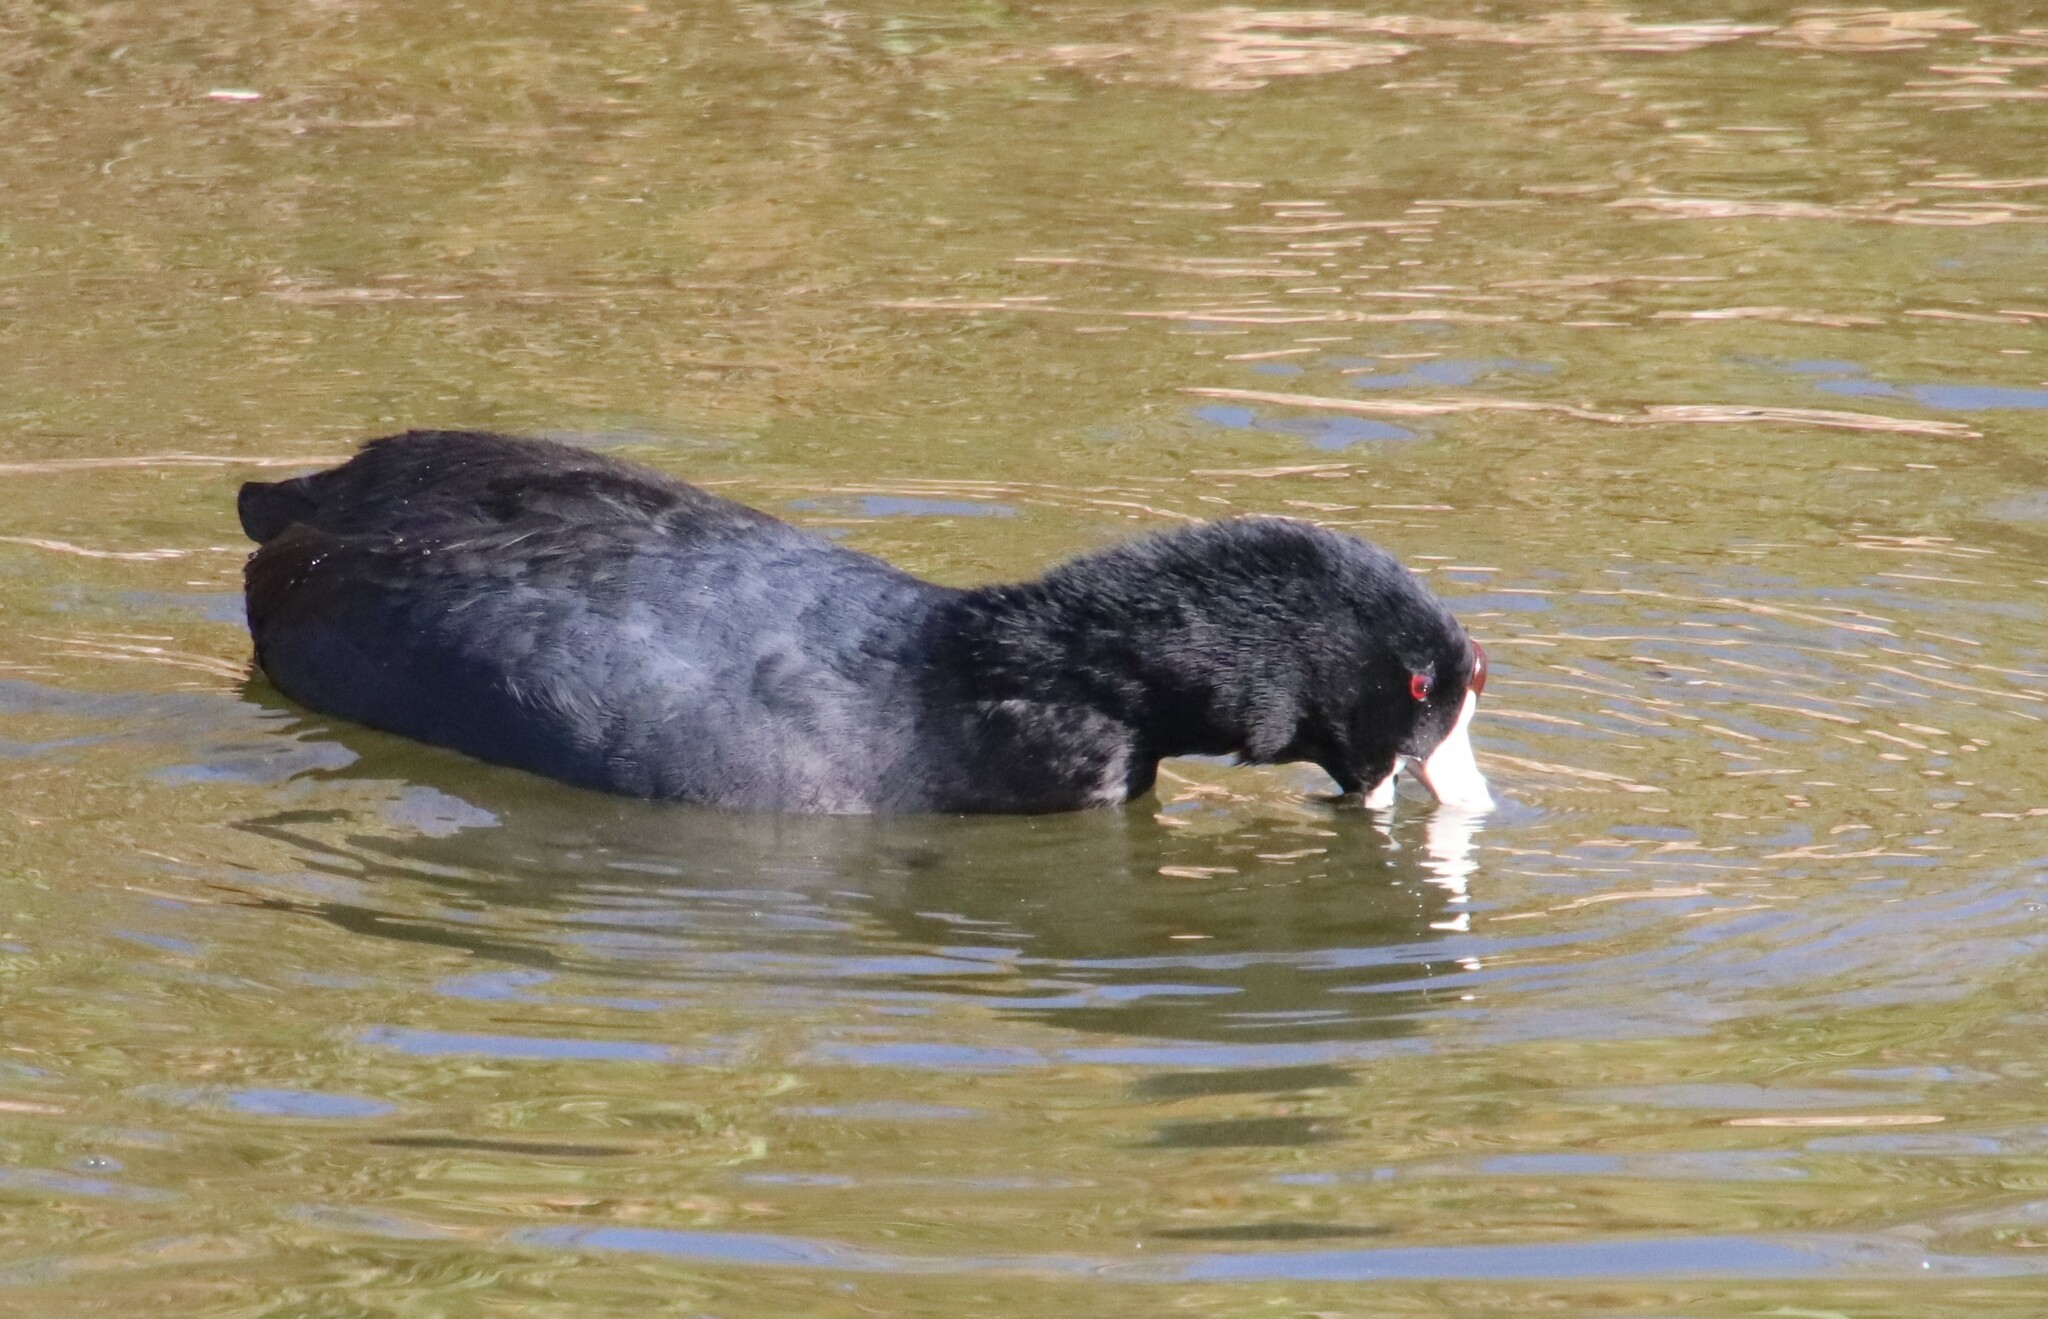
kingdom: Animalia
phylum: Chordata
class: Aves
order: Gruiformes
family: Rallidae
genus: Fulica
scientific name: Fulica americana
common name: American coot
